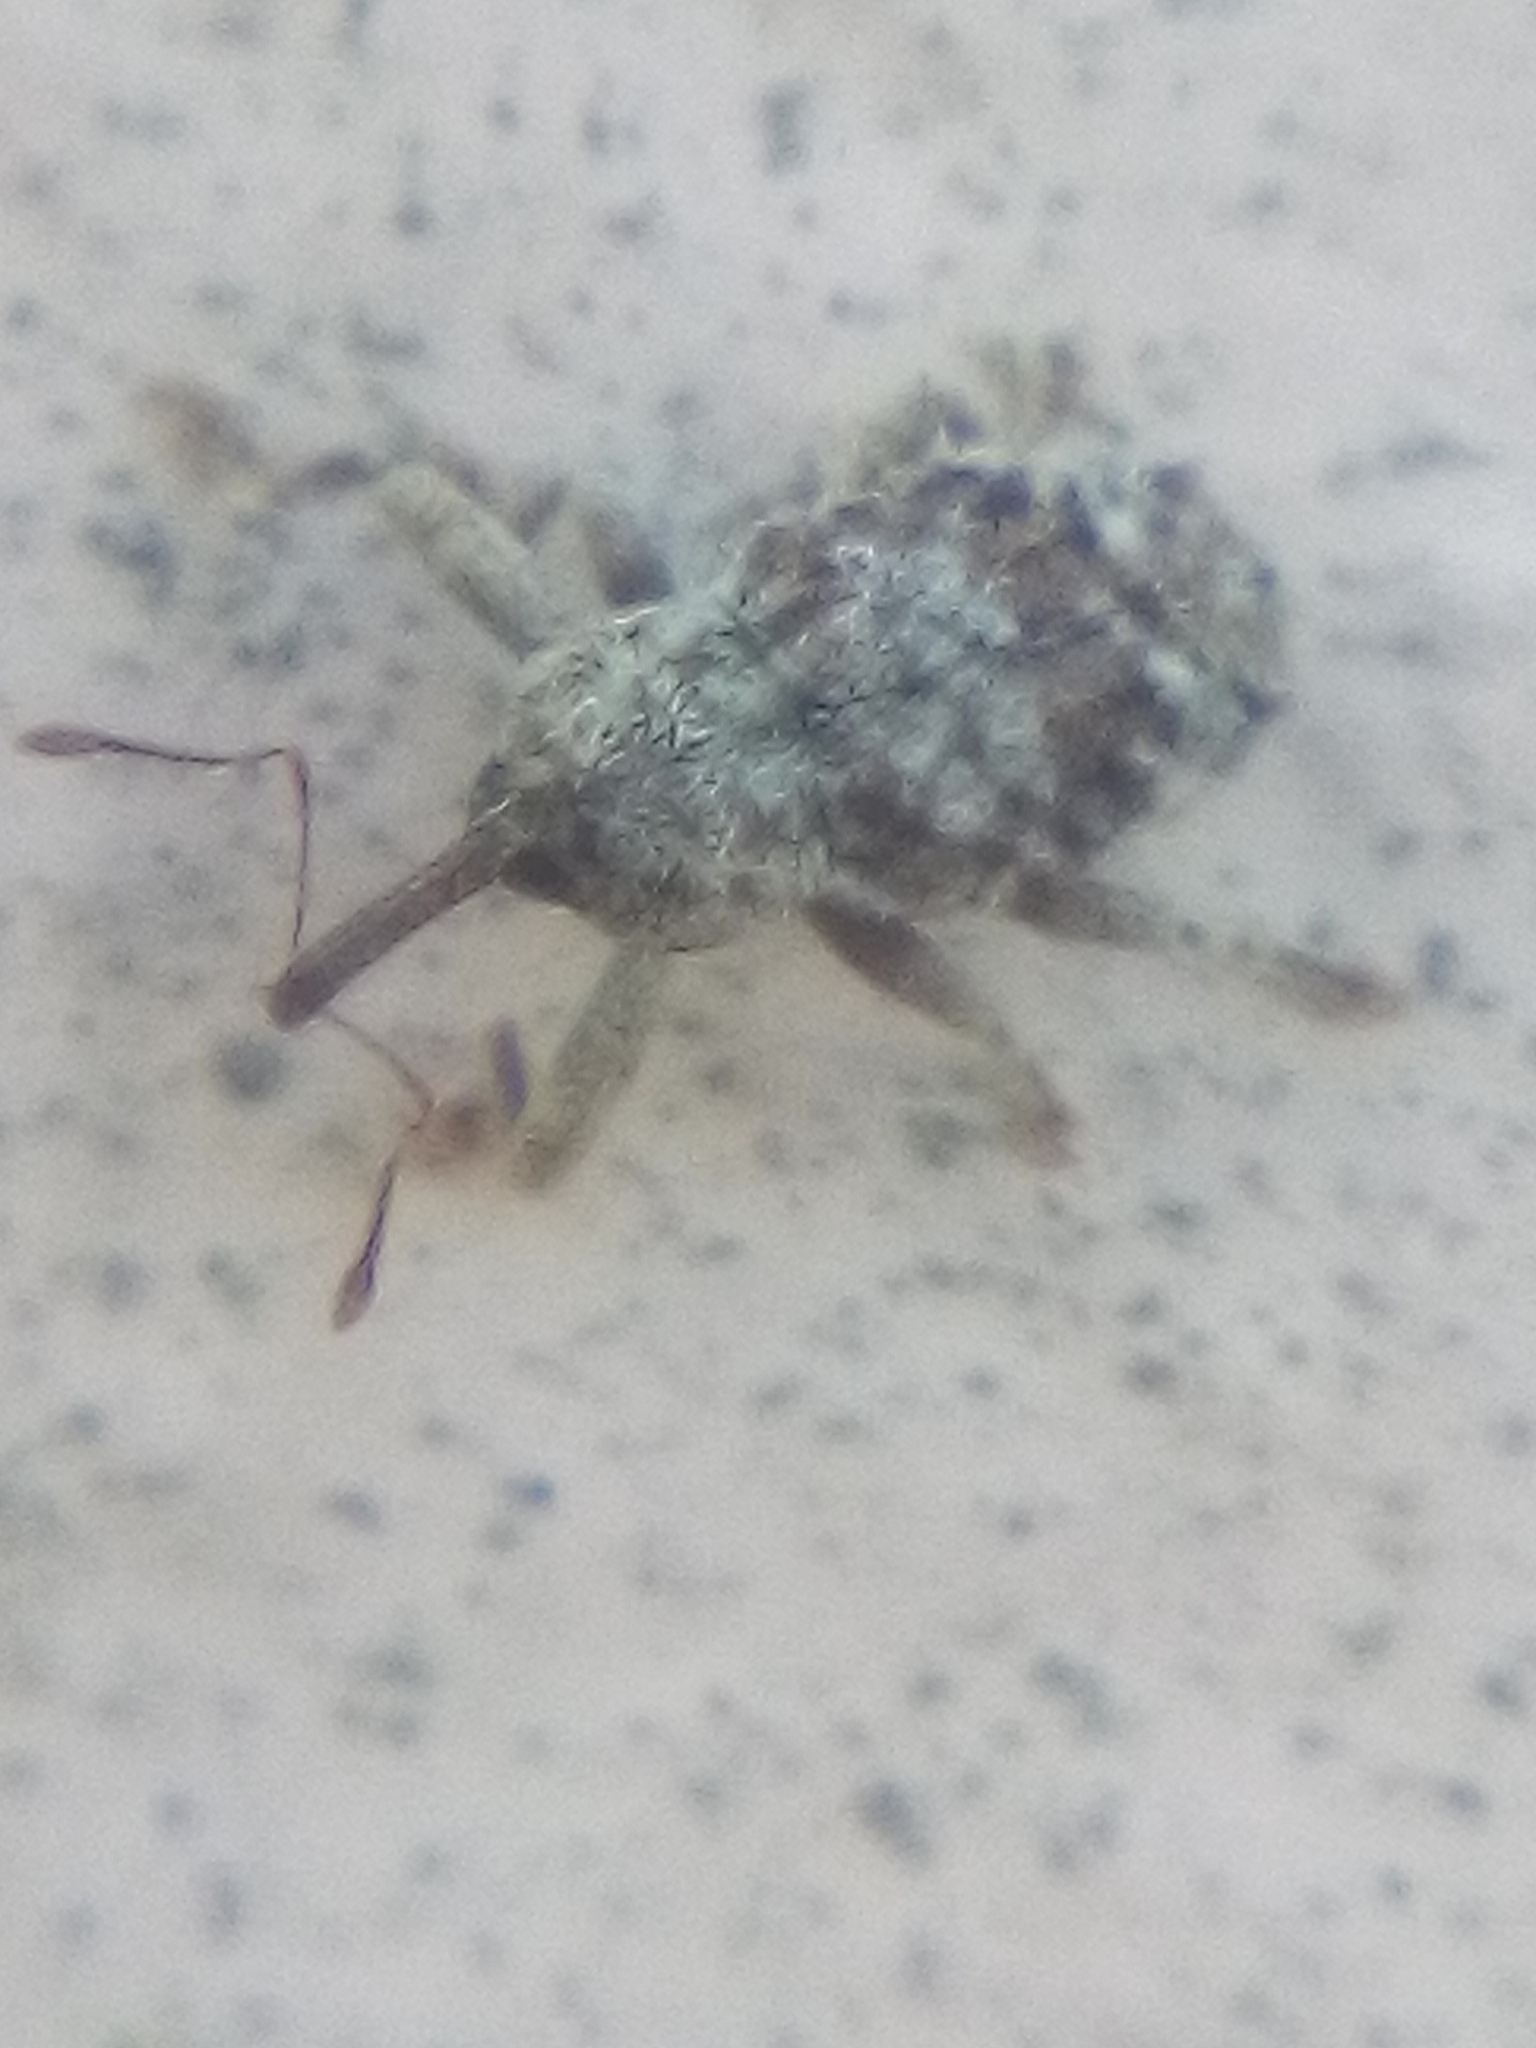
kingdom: Animalia
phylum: Arthropoda
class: Insecta
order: Coleoptera
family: Curculionidae
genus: Emplesis
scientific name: Emplesis bifoveata
